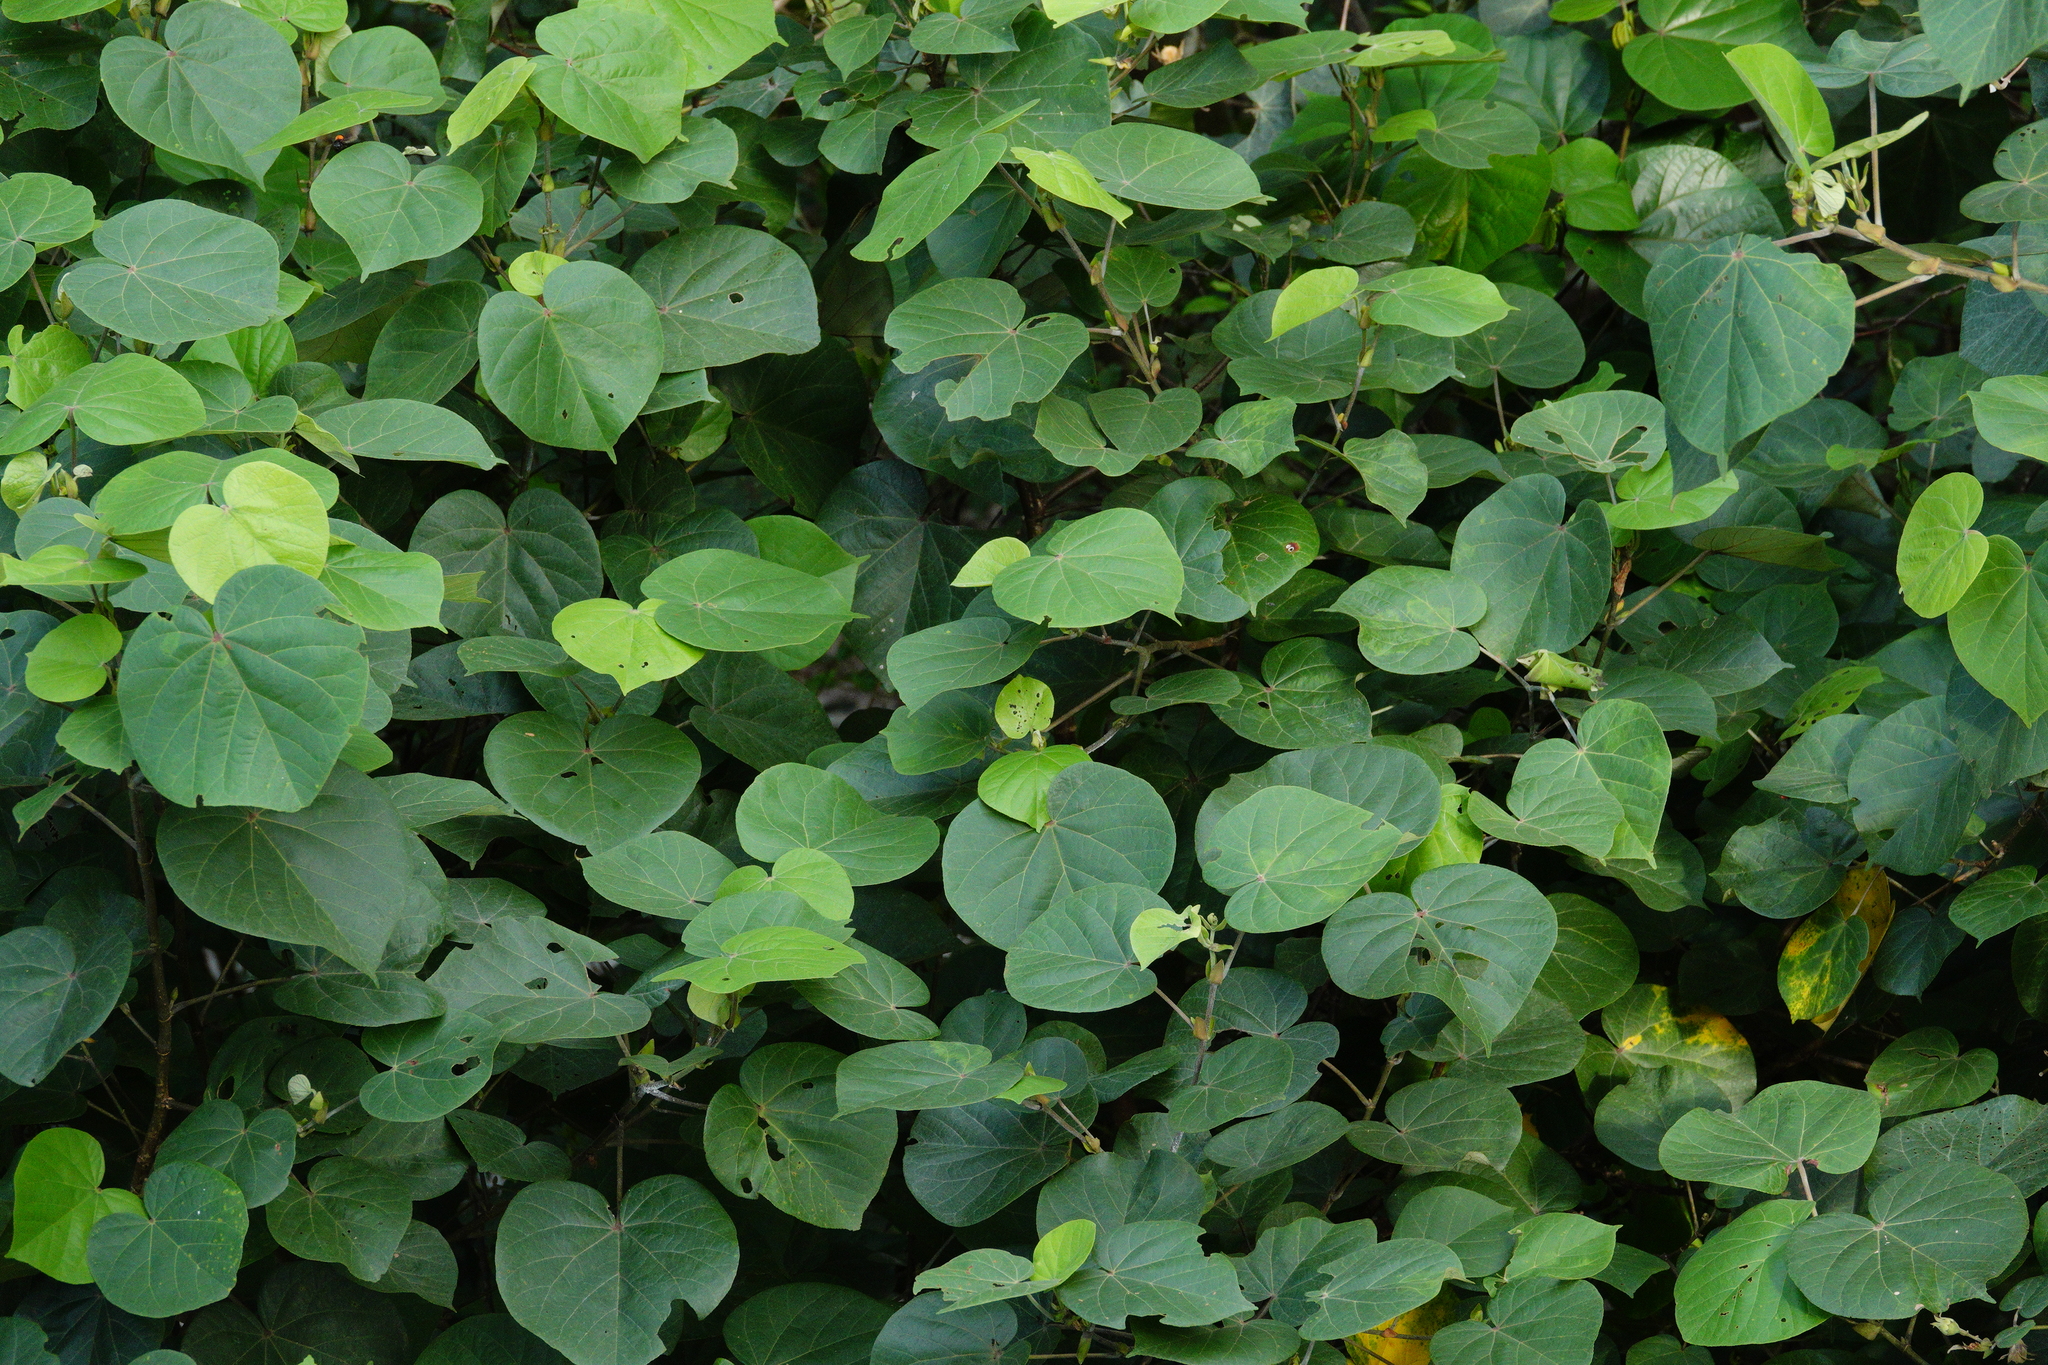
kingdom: Plantae
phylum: Tracheophyta
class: Magnoliopsida
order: Malvales
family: Malvaceae
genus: Talipariti
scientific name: Talipariti tiliaceum
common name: Sea hibiscus
